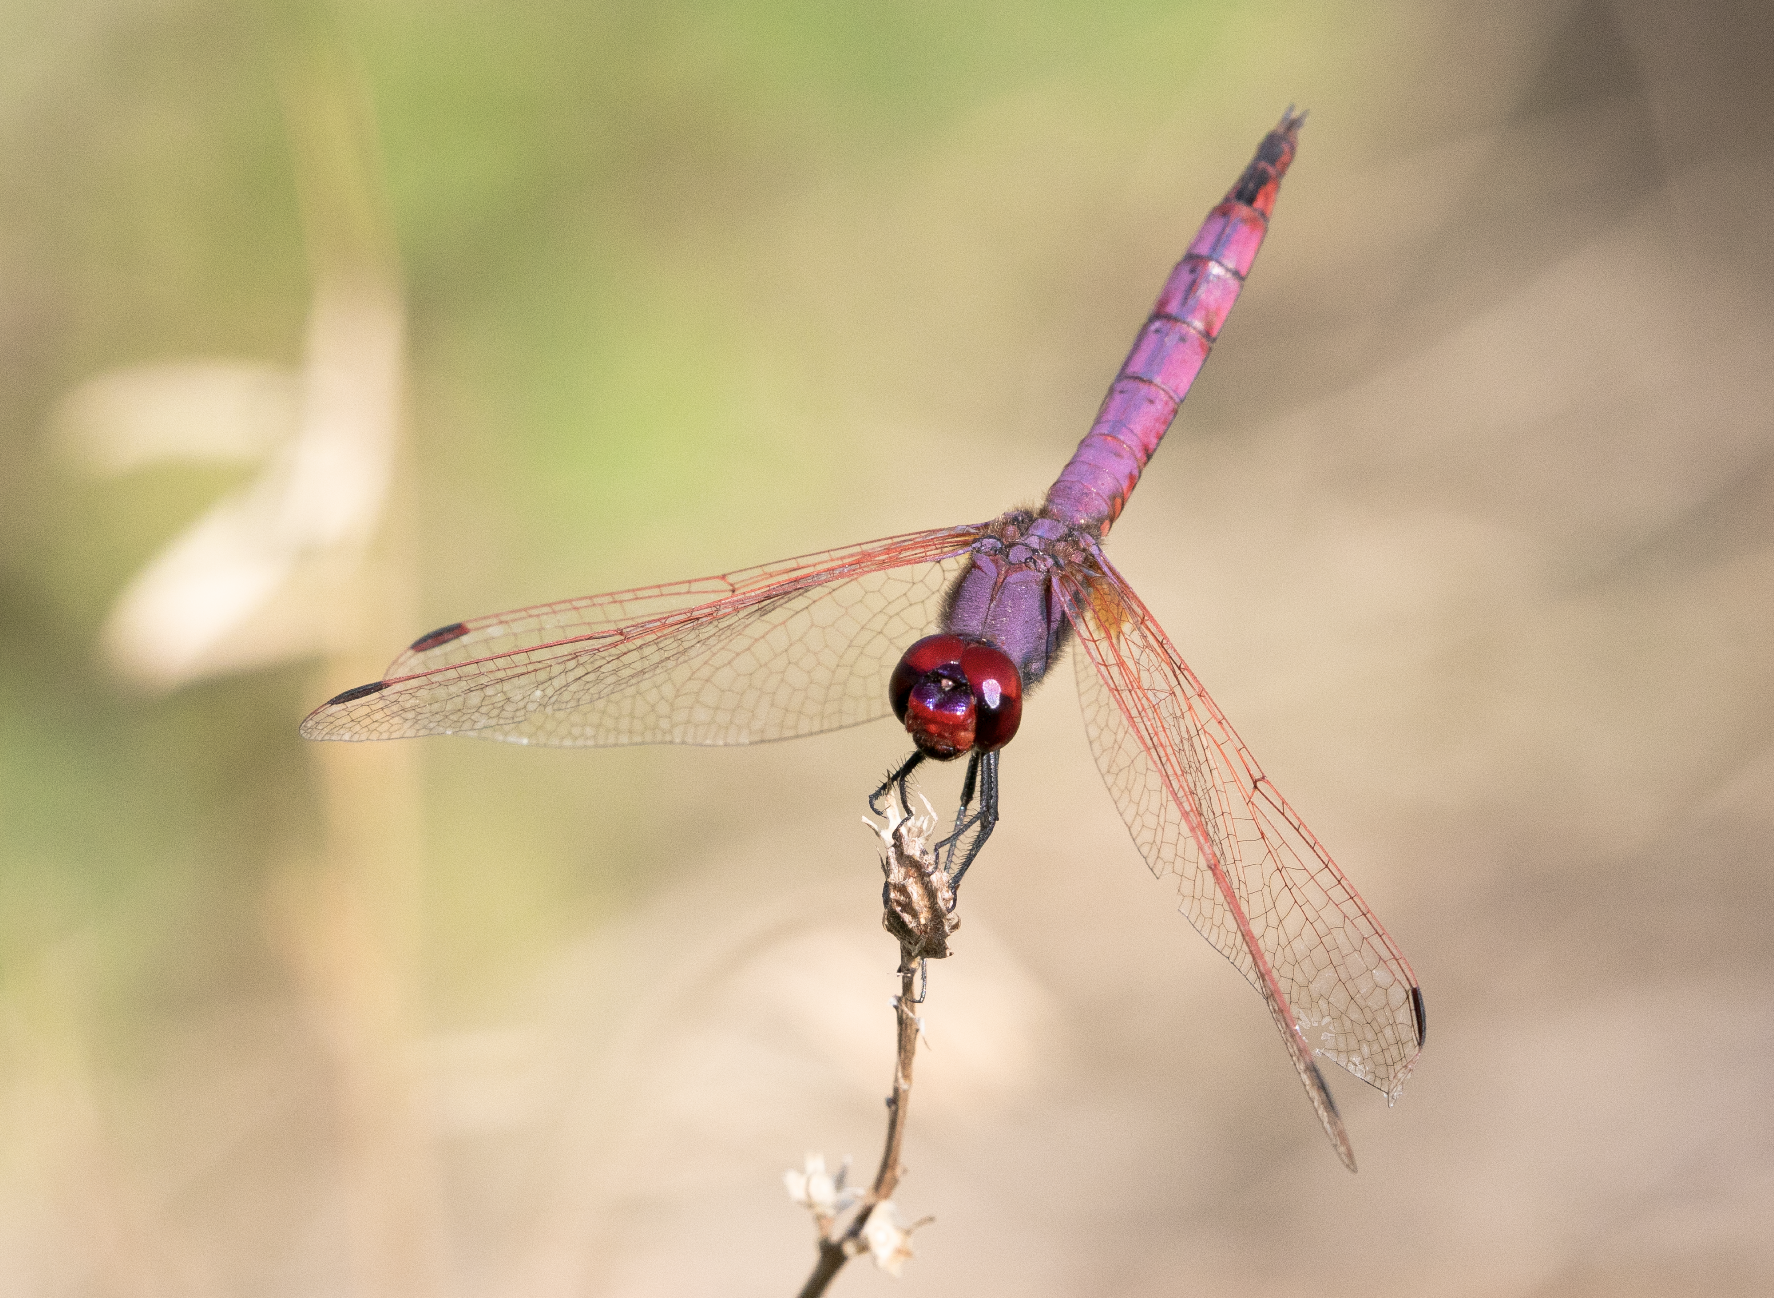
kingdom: Animalia
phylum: Arthropoda
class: Insecta
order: Odonata
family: Libellulidae
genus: Trithemis
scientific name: Trithemis annulata
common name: Violet dropwing
